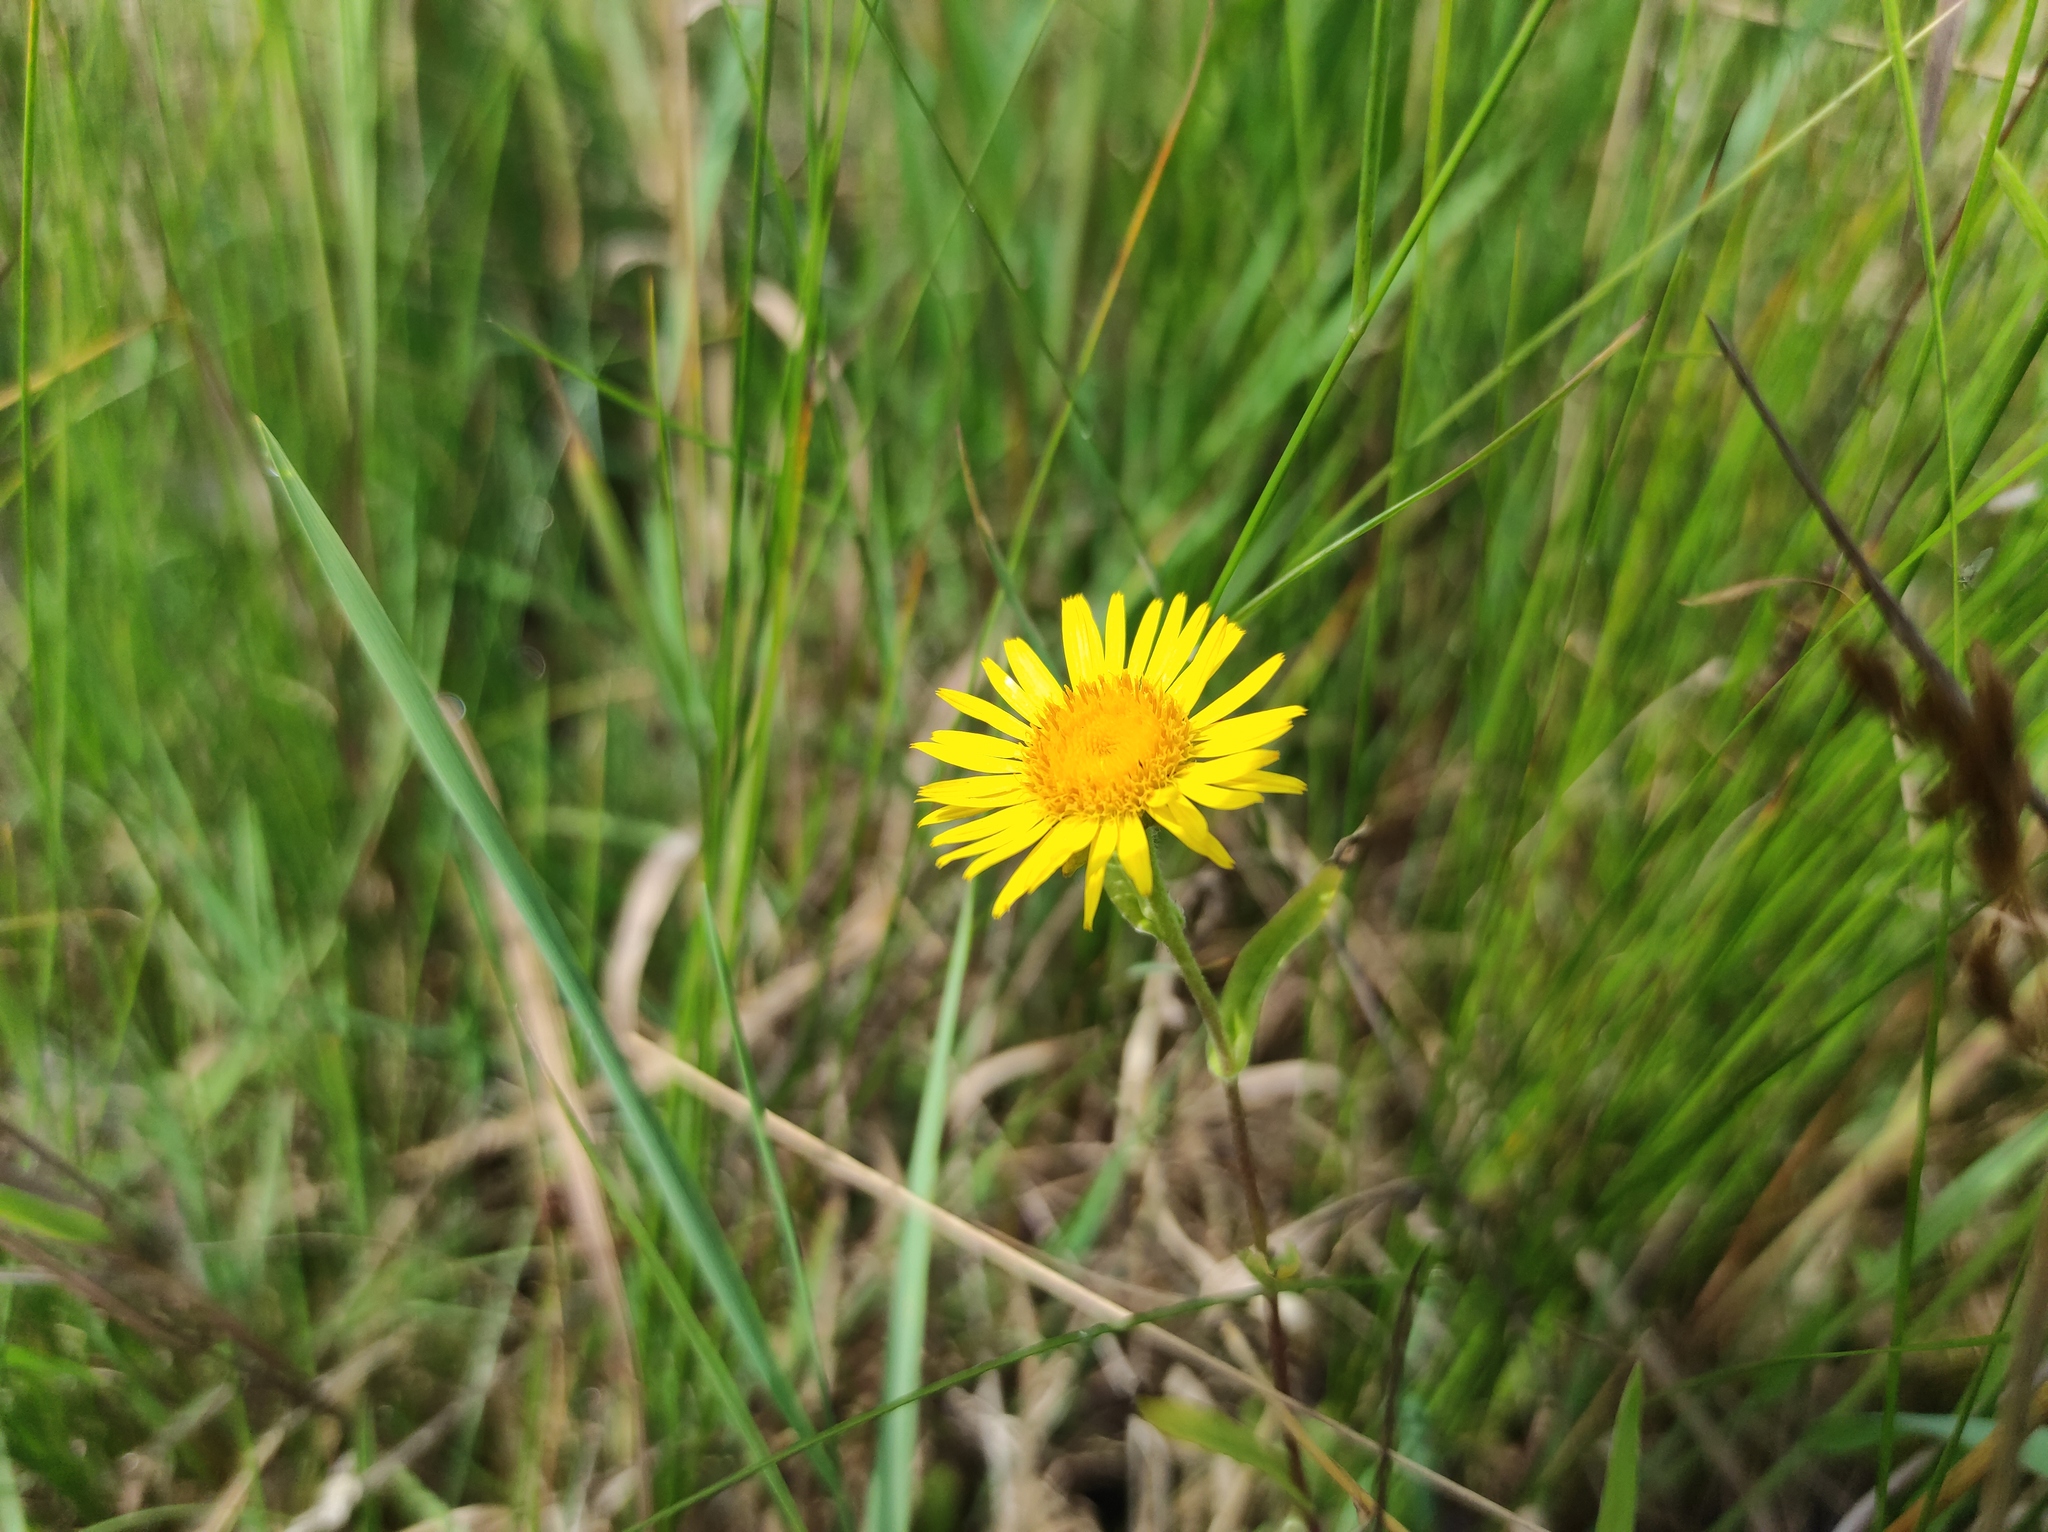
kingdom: Plantae
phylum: Tracheophyta
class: Magnoliopsida
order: Asterales
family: Asteraceae
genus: Pentanema
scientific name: Pentanema britannicum
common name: British elecampane
